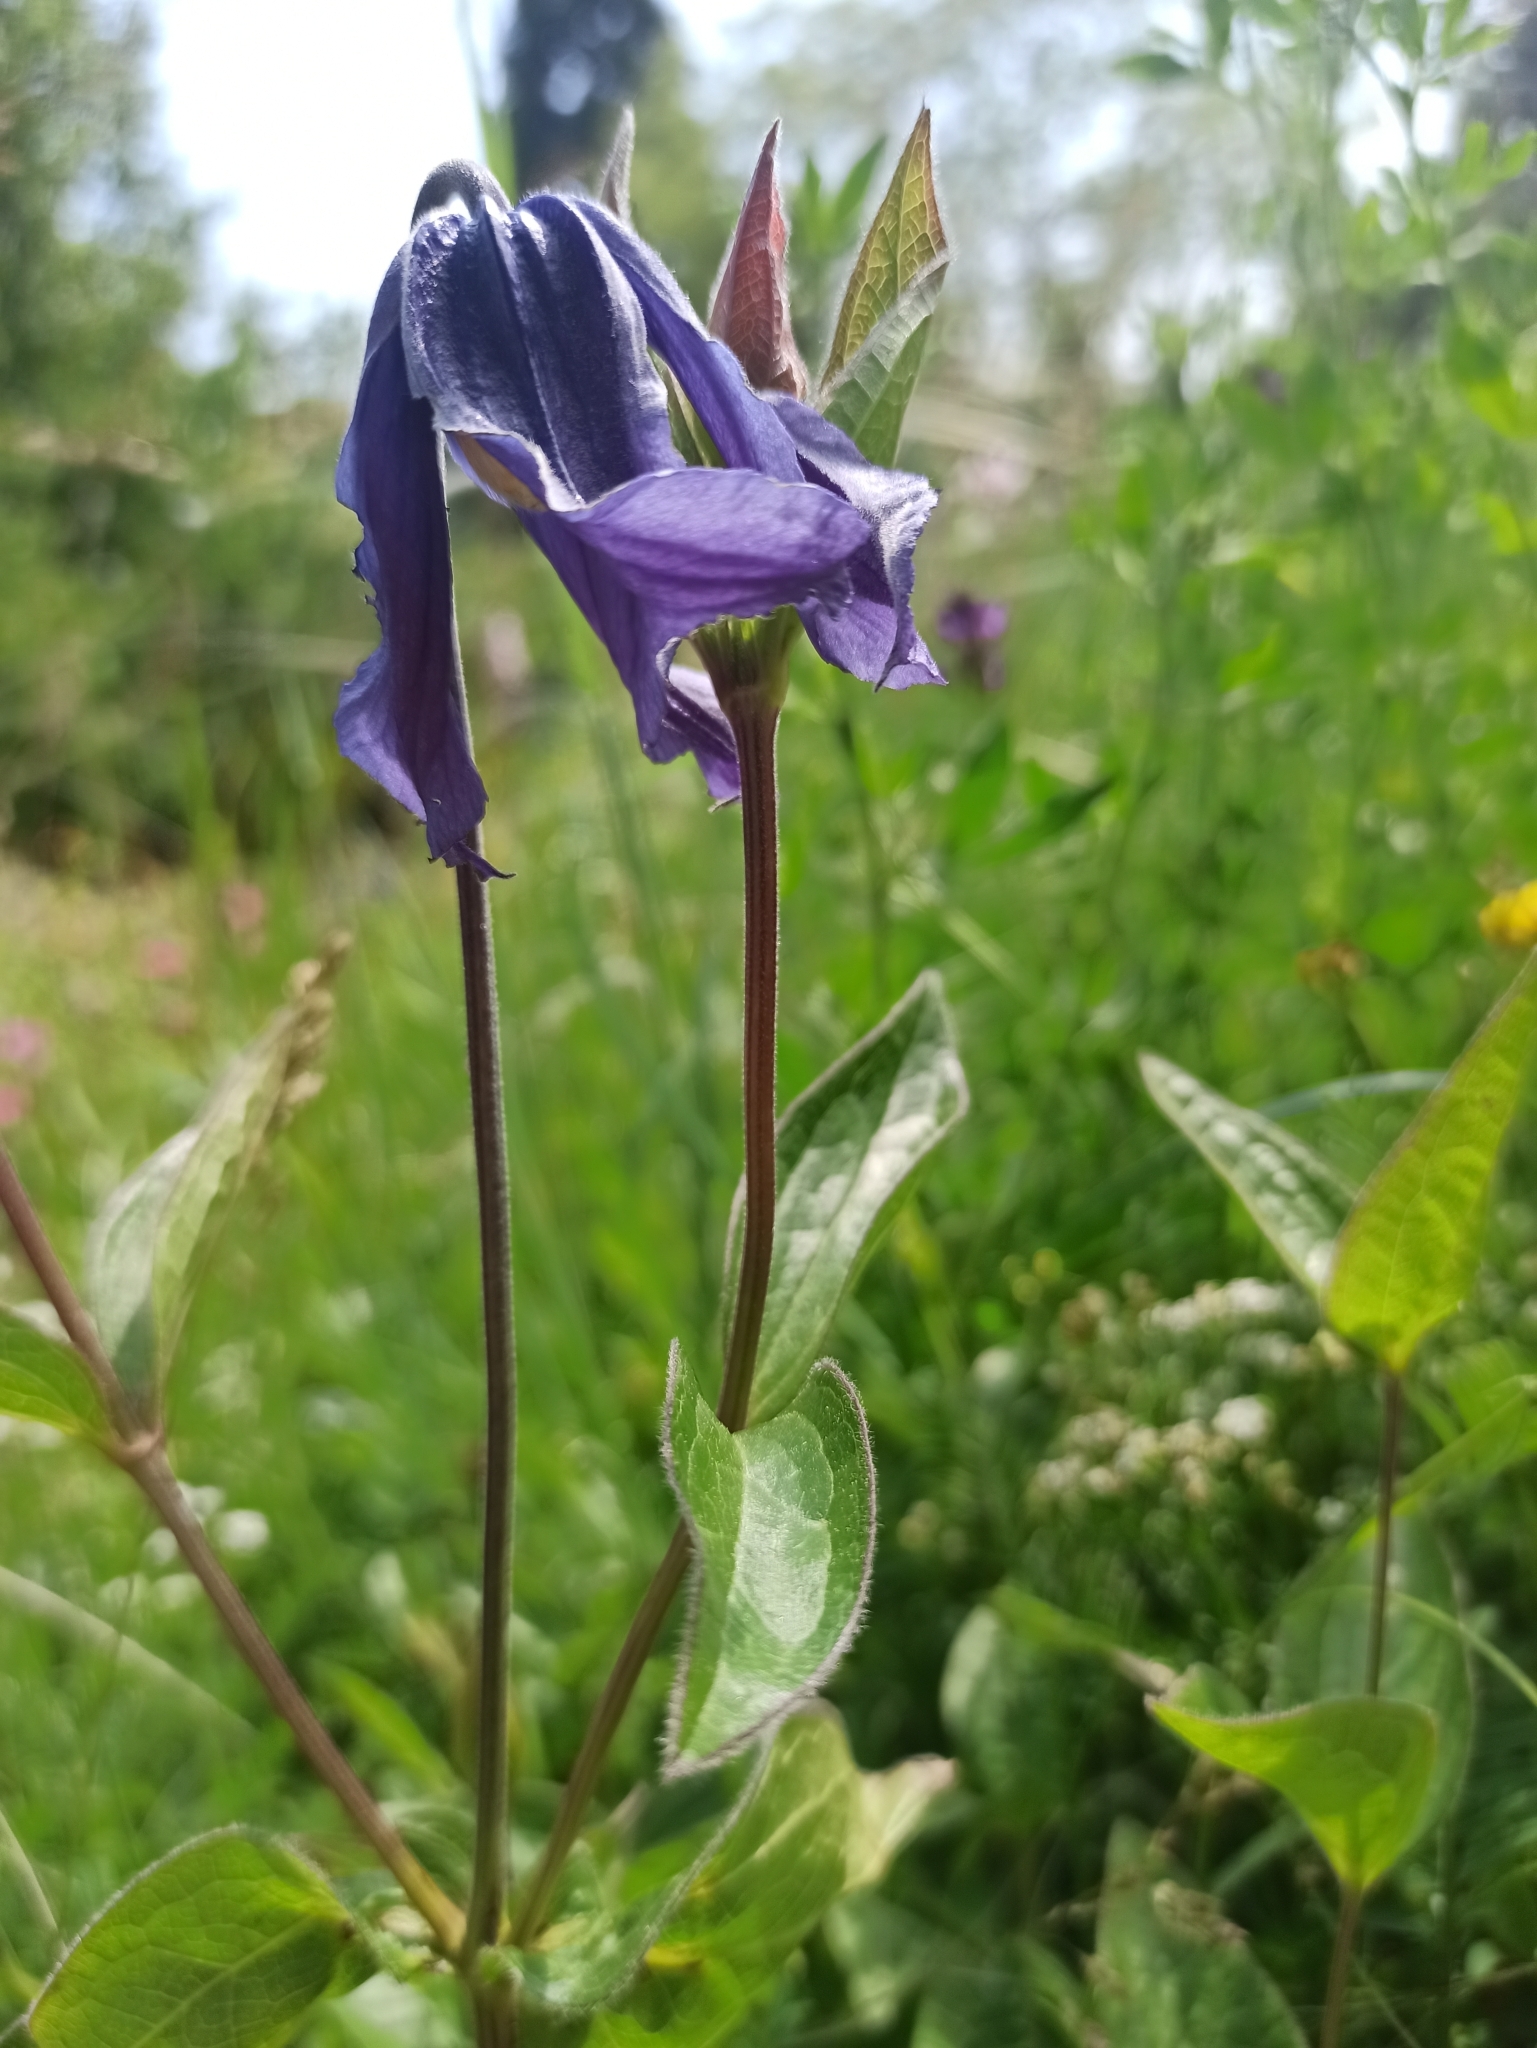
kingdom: Plantae
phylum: Tracheophyta
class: Magnoliopsida
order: Ranunculales
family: Ranunculaceae
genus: Clematis
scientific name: Clematis integrifolia
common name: Solitary clematis
